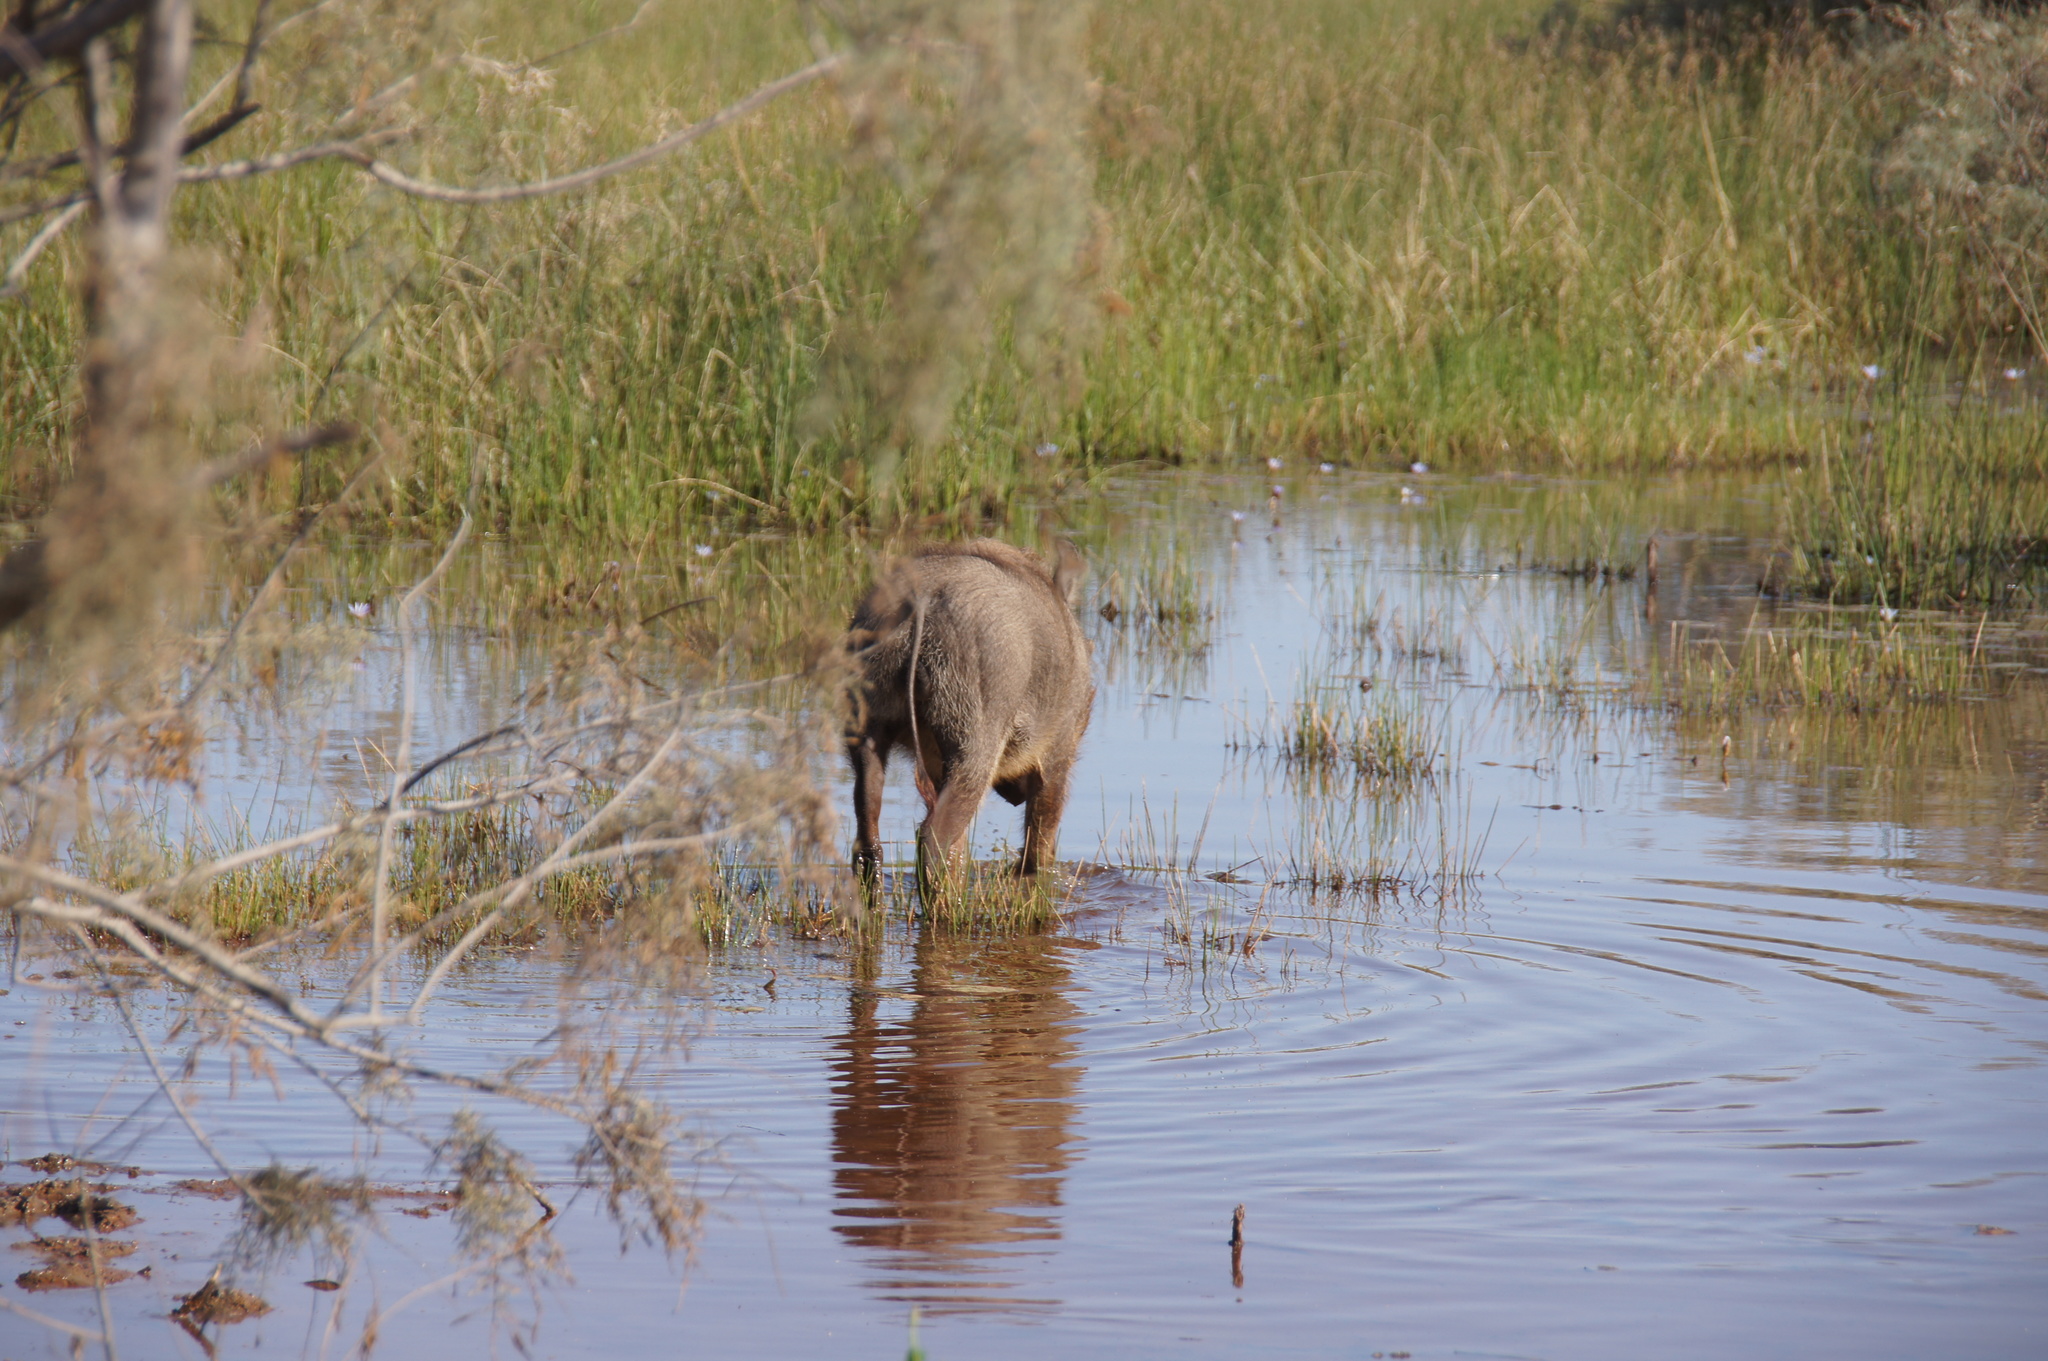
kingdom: Animalia
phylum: Chordata
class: Mammalia
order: Artiodactyla
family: Suidae
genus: Phacochoerus
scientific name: Phacochoerus africanus
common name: Common warthog
